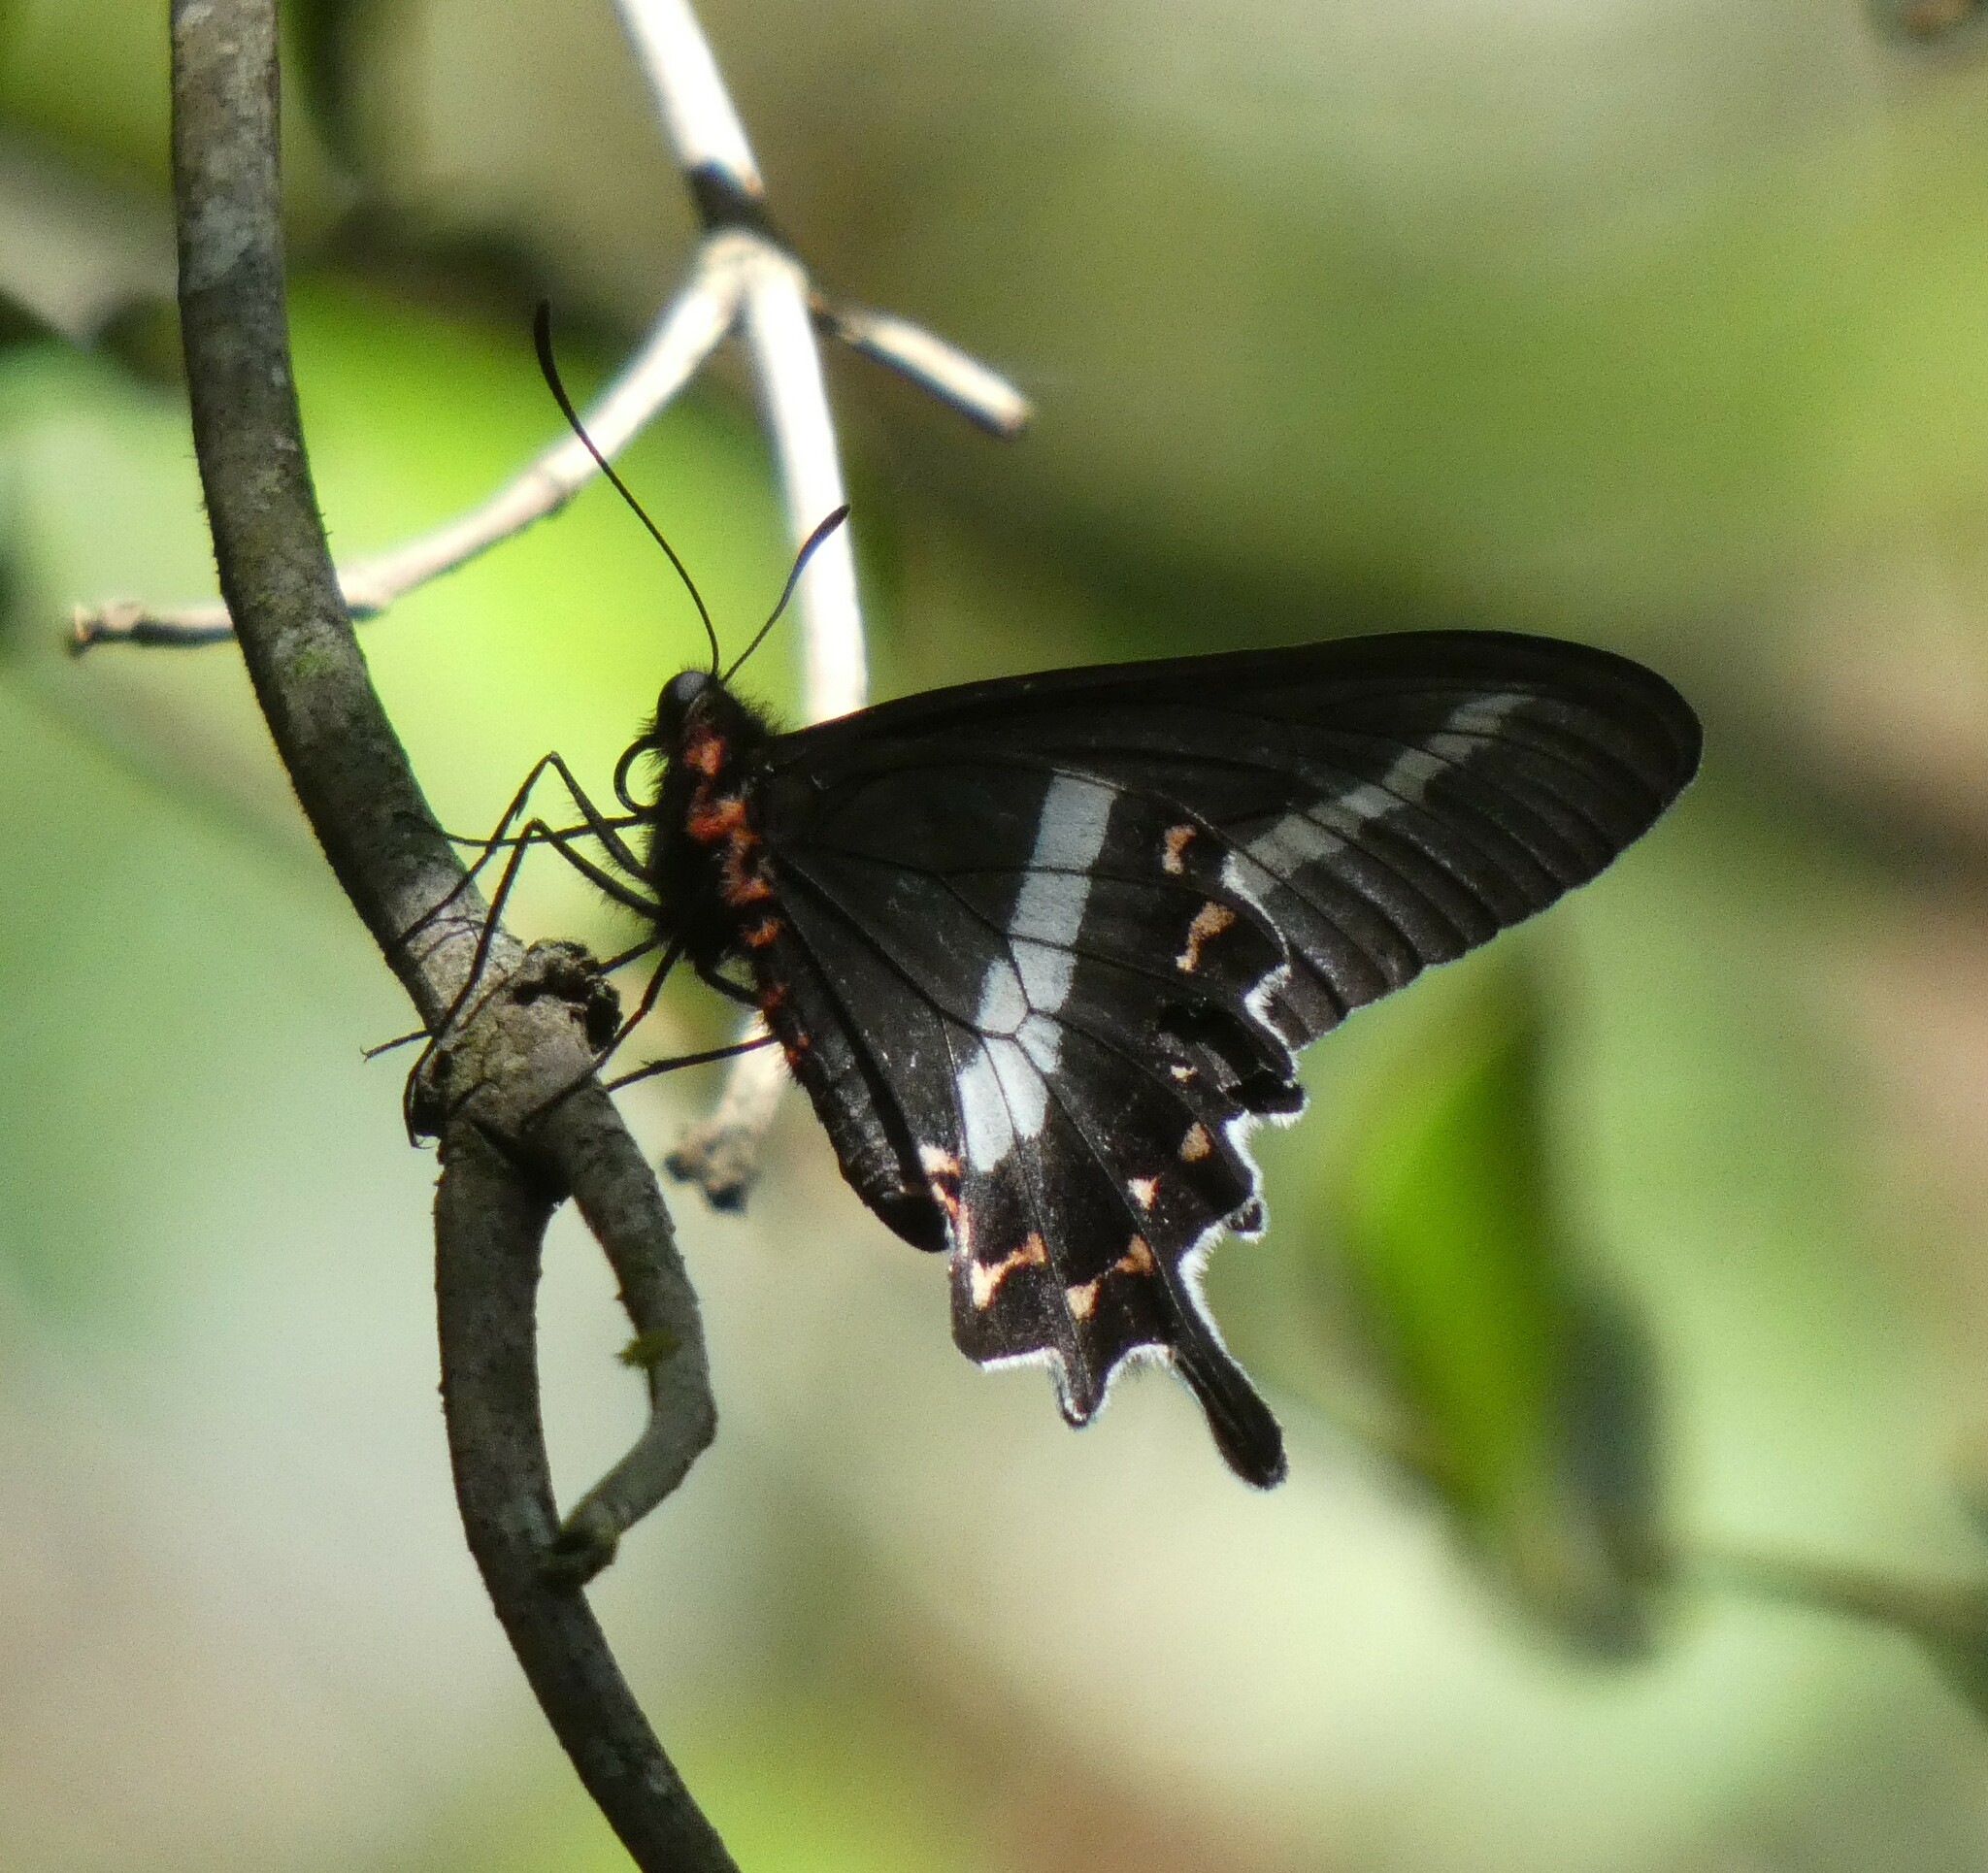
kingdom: Animalia
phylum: Arthropoda
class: Insecta
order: Lepidoptera
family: Papilionidae
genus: Parides
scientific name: Parides bunichus
